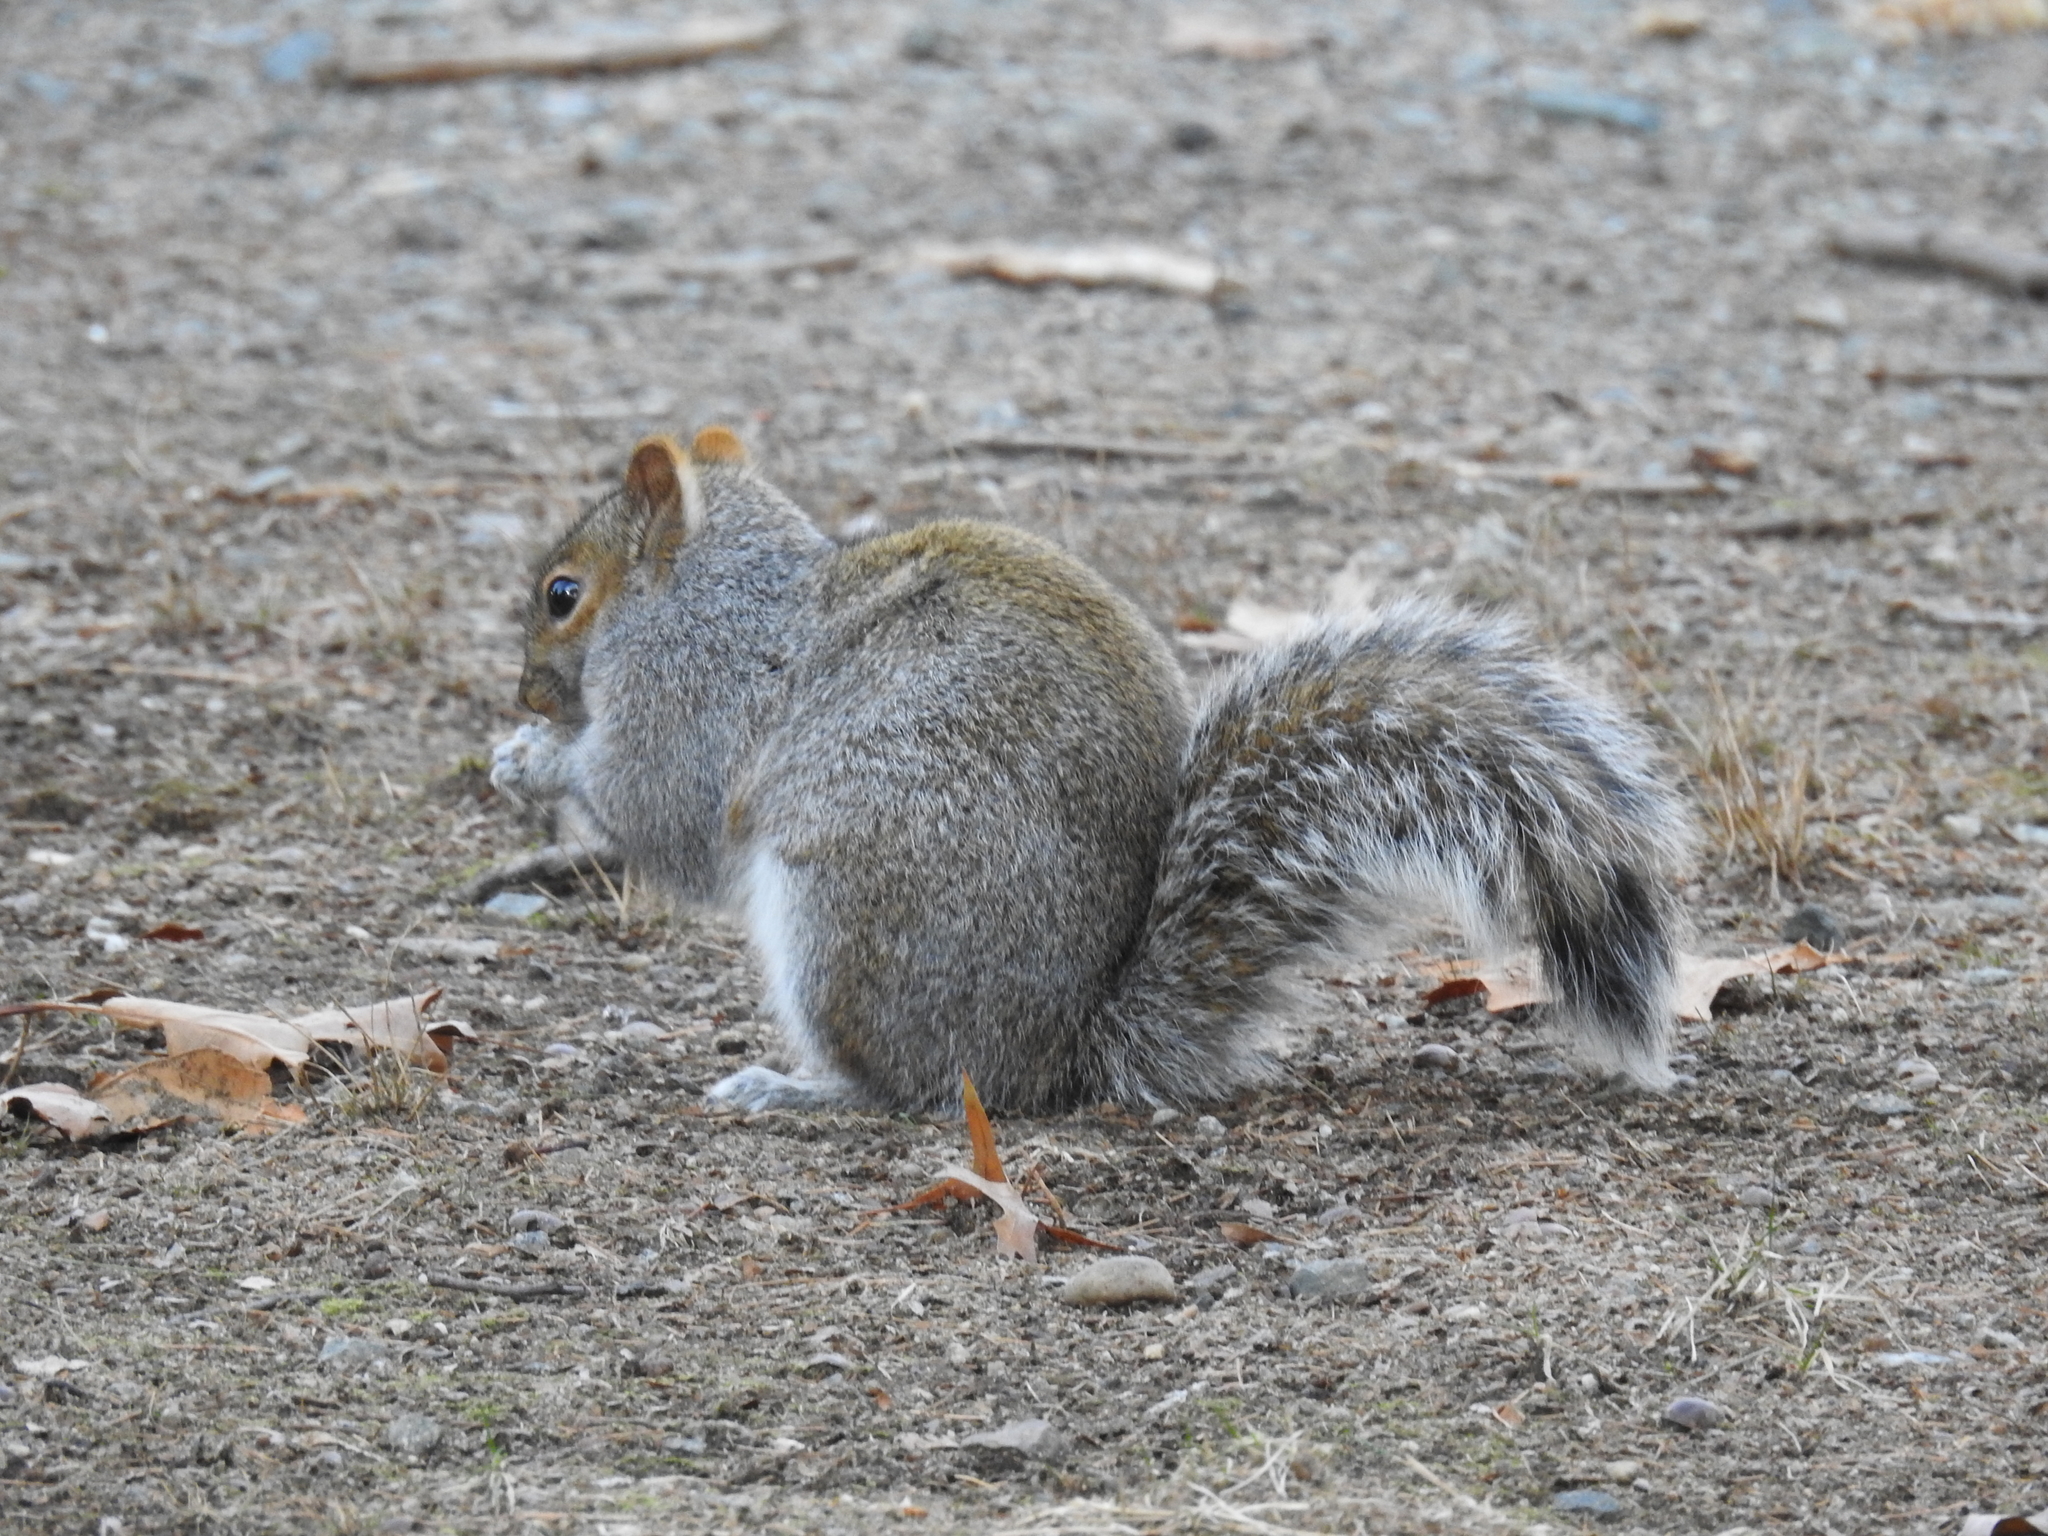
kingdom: Animalia
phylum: Chordata
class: Mammalia
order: Rodentia
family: Sciuridae
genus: Sciurus
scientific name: Sciurus carolinensis
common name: Eastern gray squirrel
